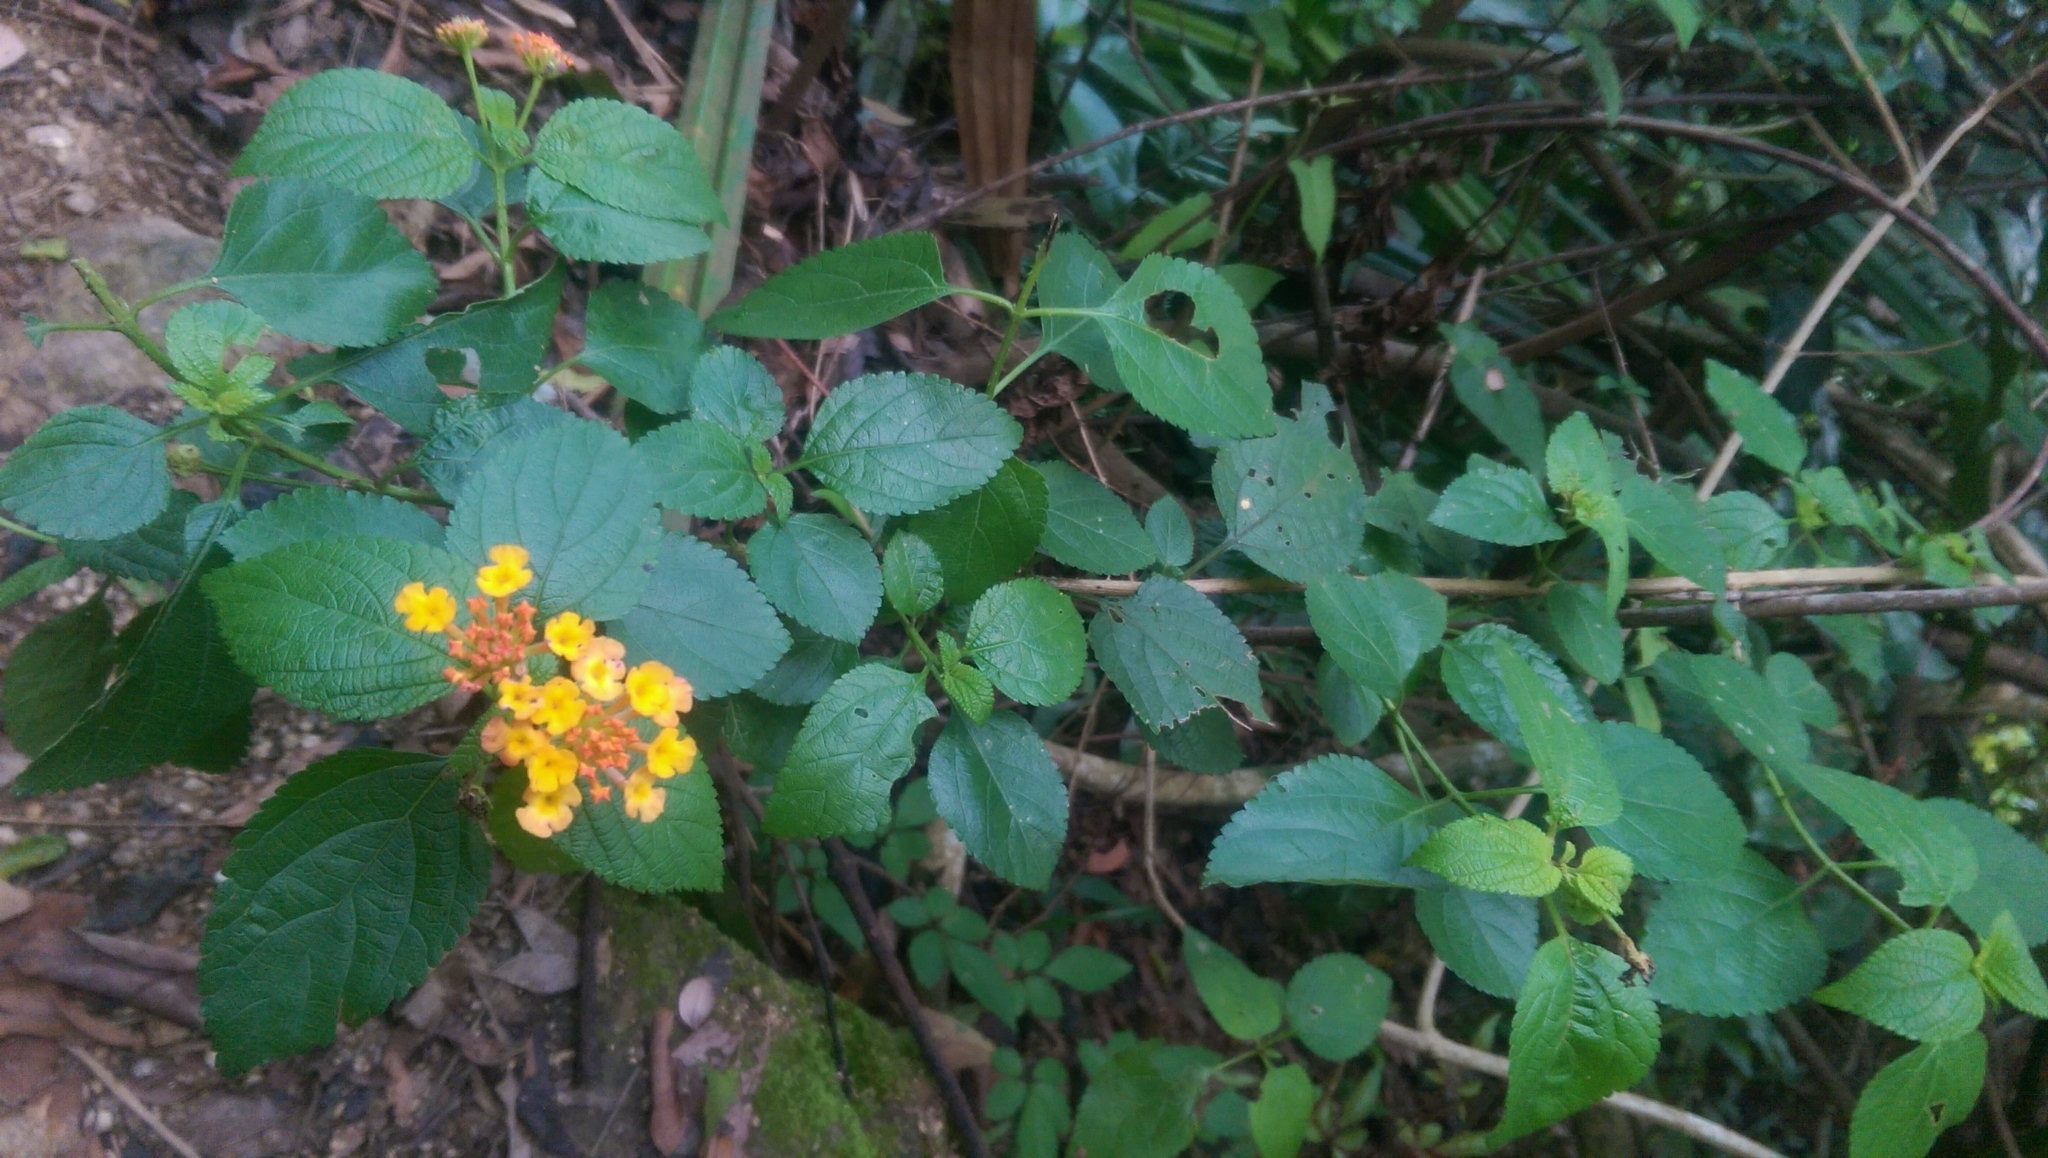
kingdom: Plantae
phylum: Tracheophyta
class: Magnoliopsida
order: Lamiales
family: Verbenaceae
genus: Lantana
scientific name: Lantana camara
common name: Lantana
